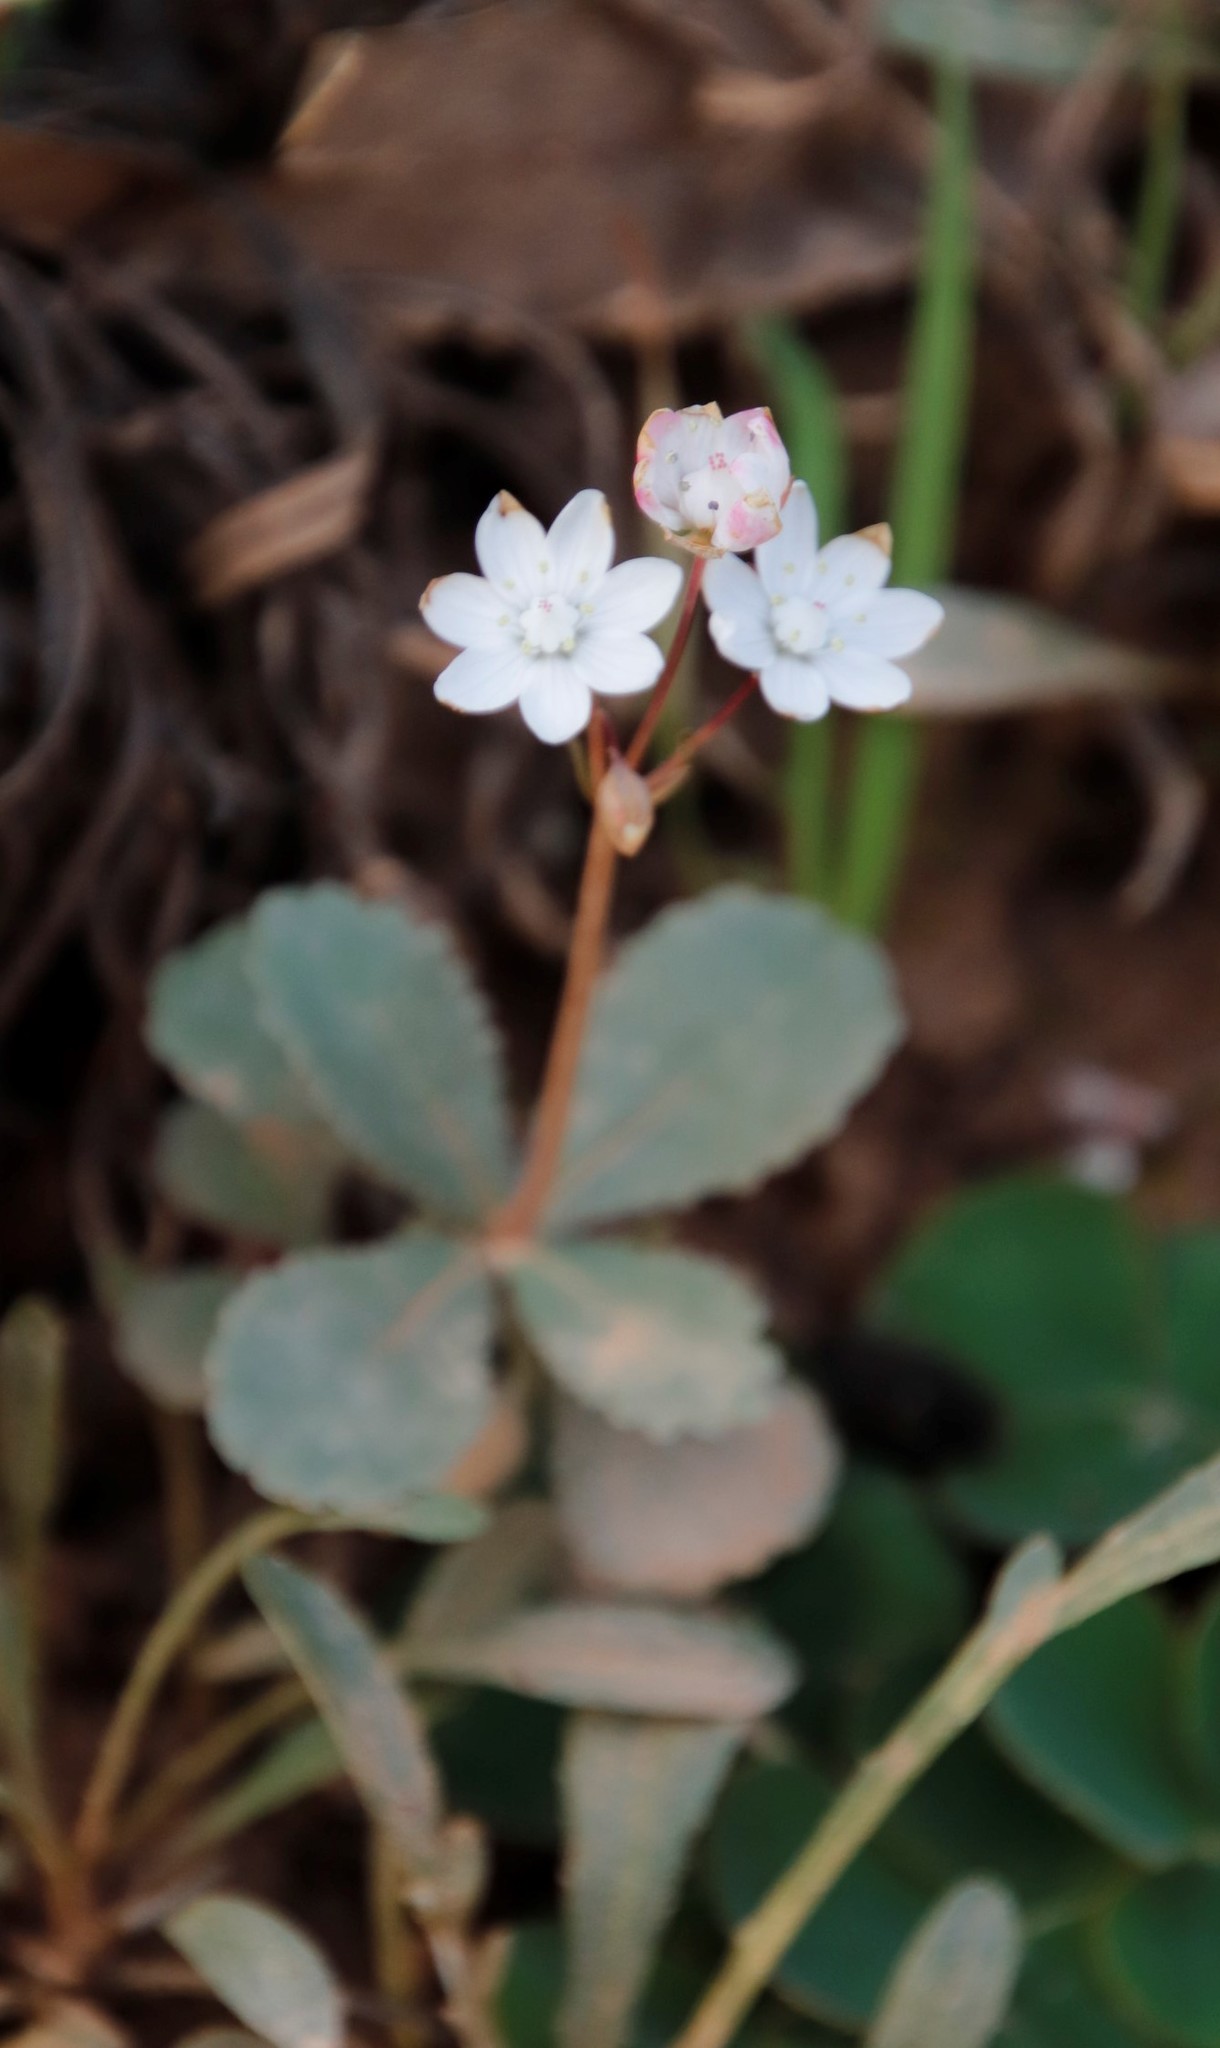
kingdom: Plantae
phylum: Tracheophyta
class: Magnoliopsida
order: Saxifragales
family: Crassulaceae
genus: Crassula
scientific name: Crassula capensis
